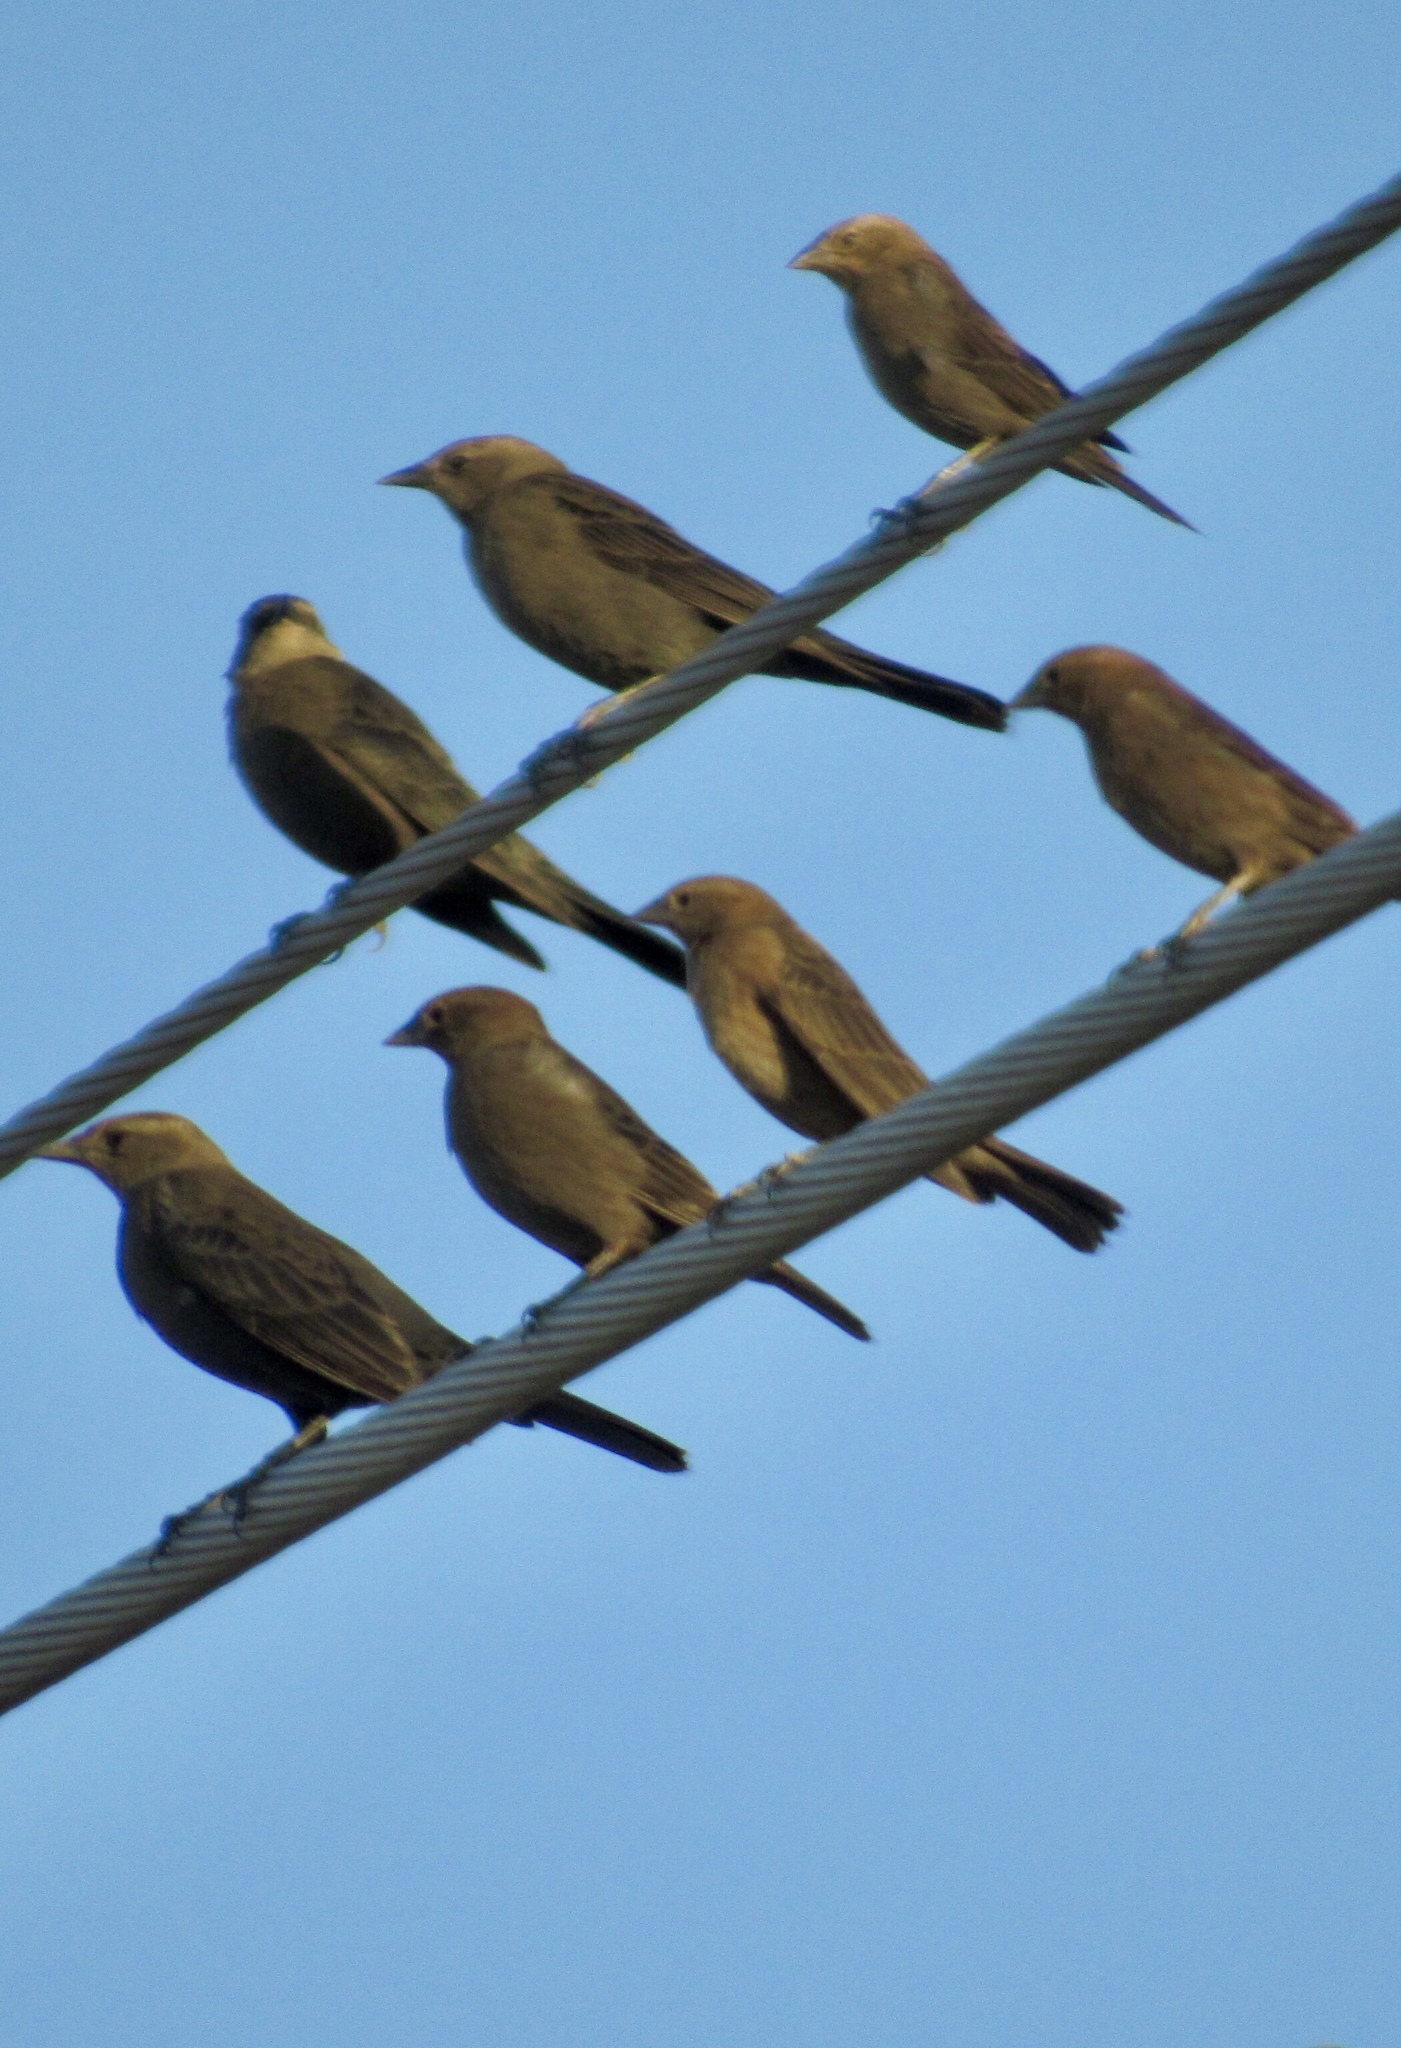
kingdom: Animalia
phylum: Chordata
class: Aves
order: Passeriformes
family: Icteridae
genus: Molothrus
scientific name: Molothrus ater
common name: Brown-headed cowbird
